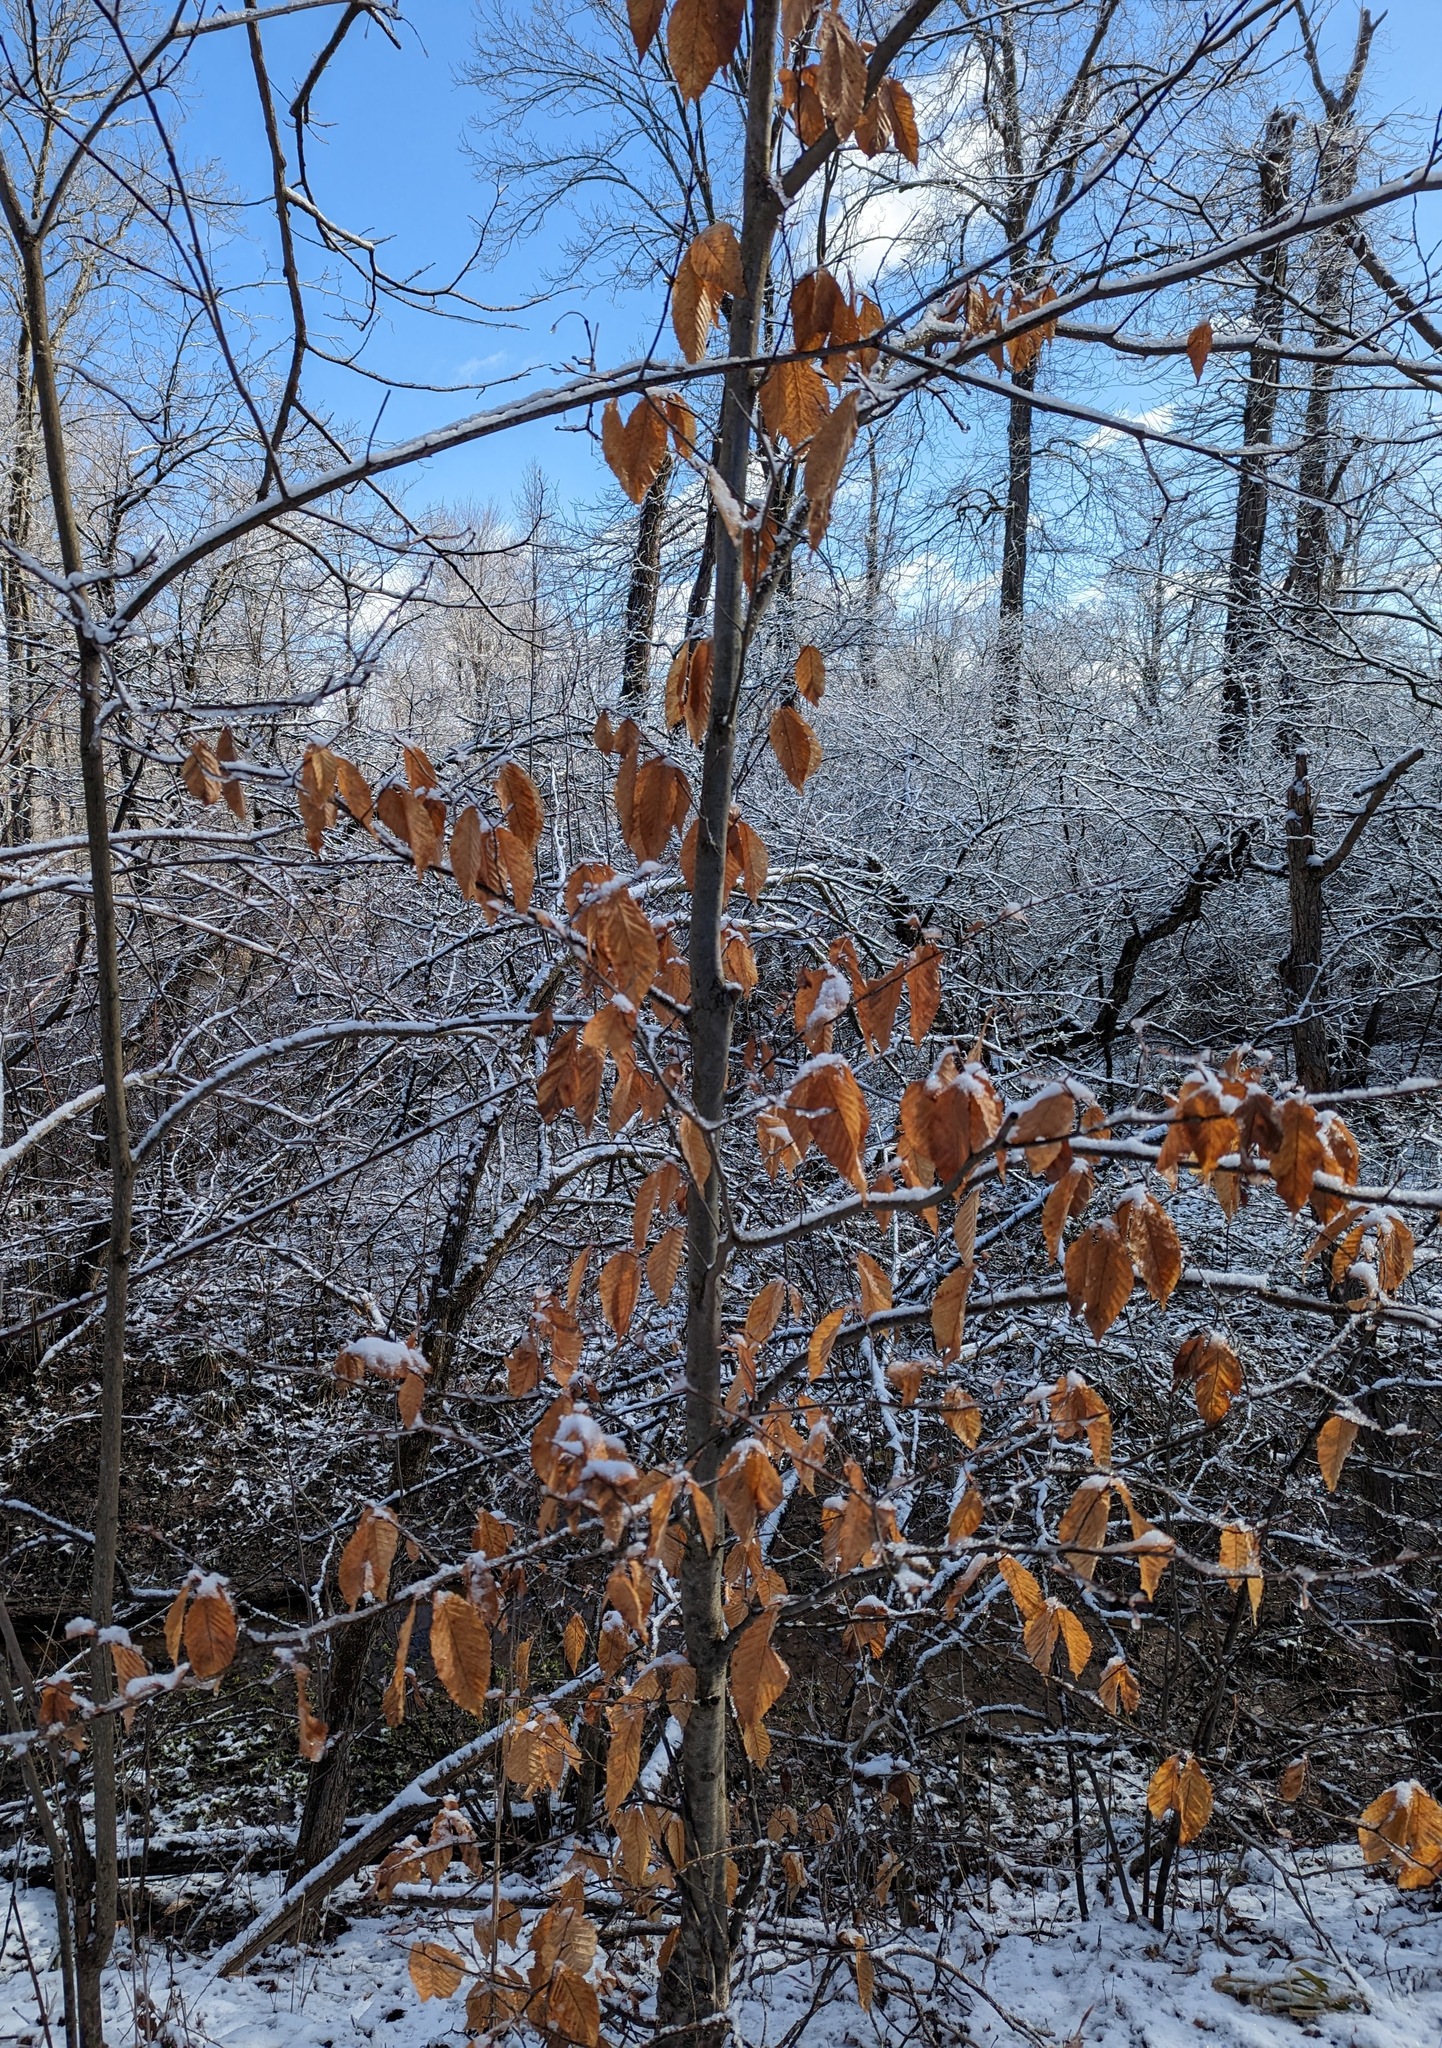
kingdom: Plantae
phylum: Tracheophyta
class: Magnoliopsida
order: Fagales
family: Fagaceae
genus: Fagus
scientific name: Fagus grandifolia
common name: American beech
